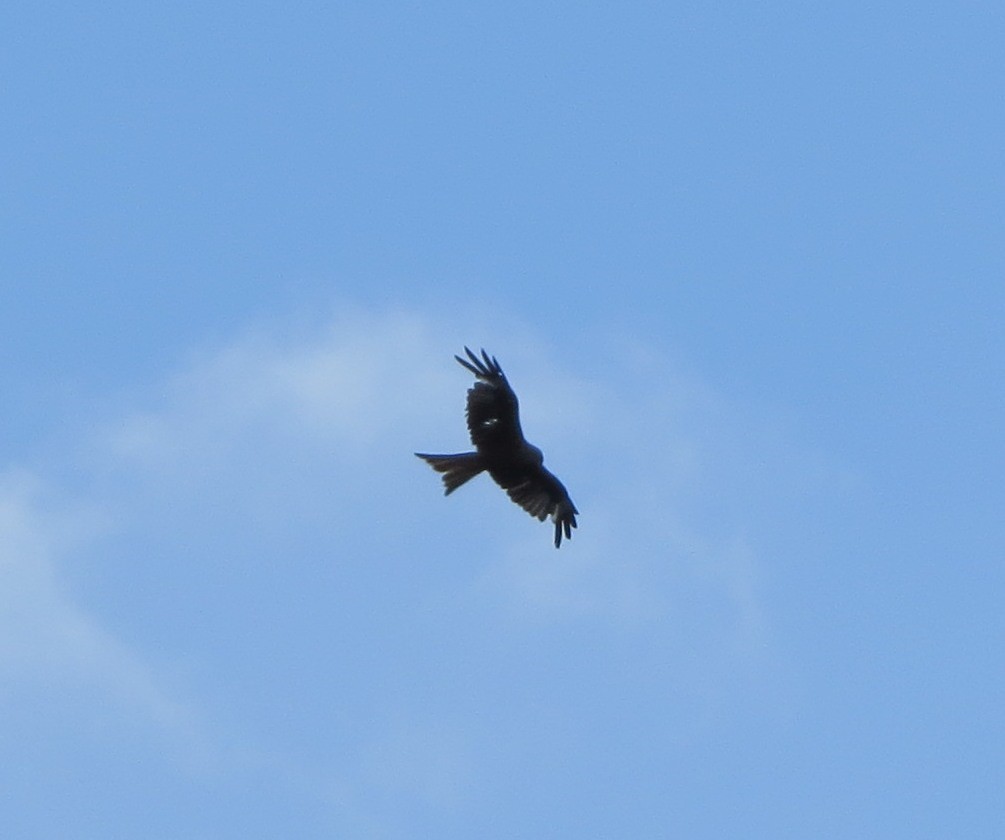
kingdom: Animalia
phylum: Chordata
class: Aves
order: Accipitriformes
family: Accipitridae
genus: Milvus
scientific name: Milvus milvus
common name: Red kite
